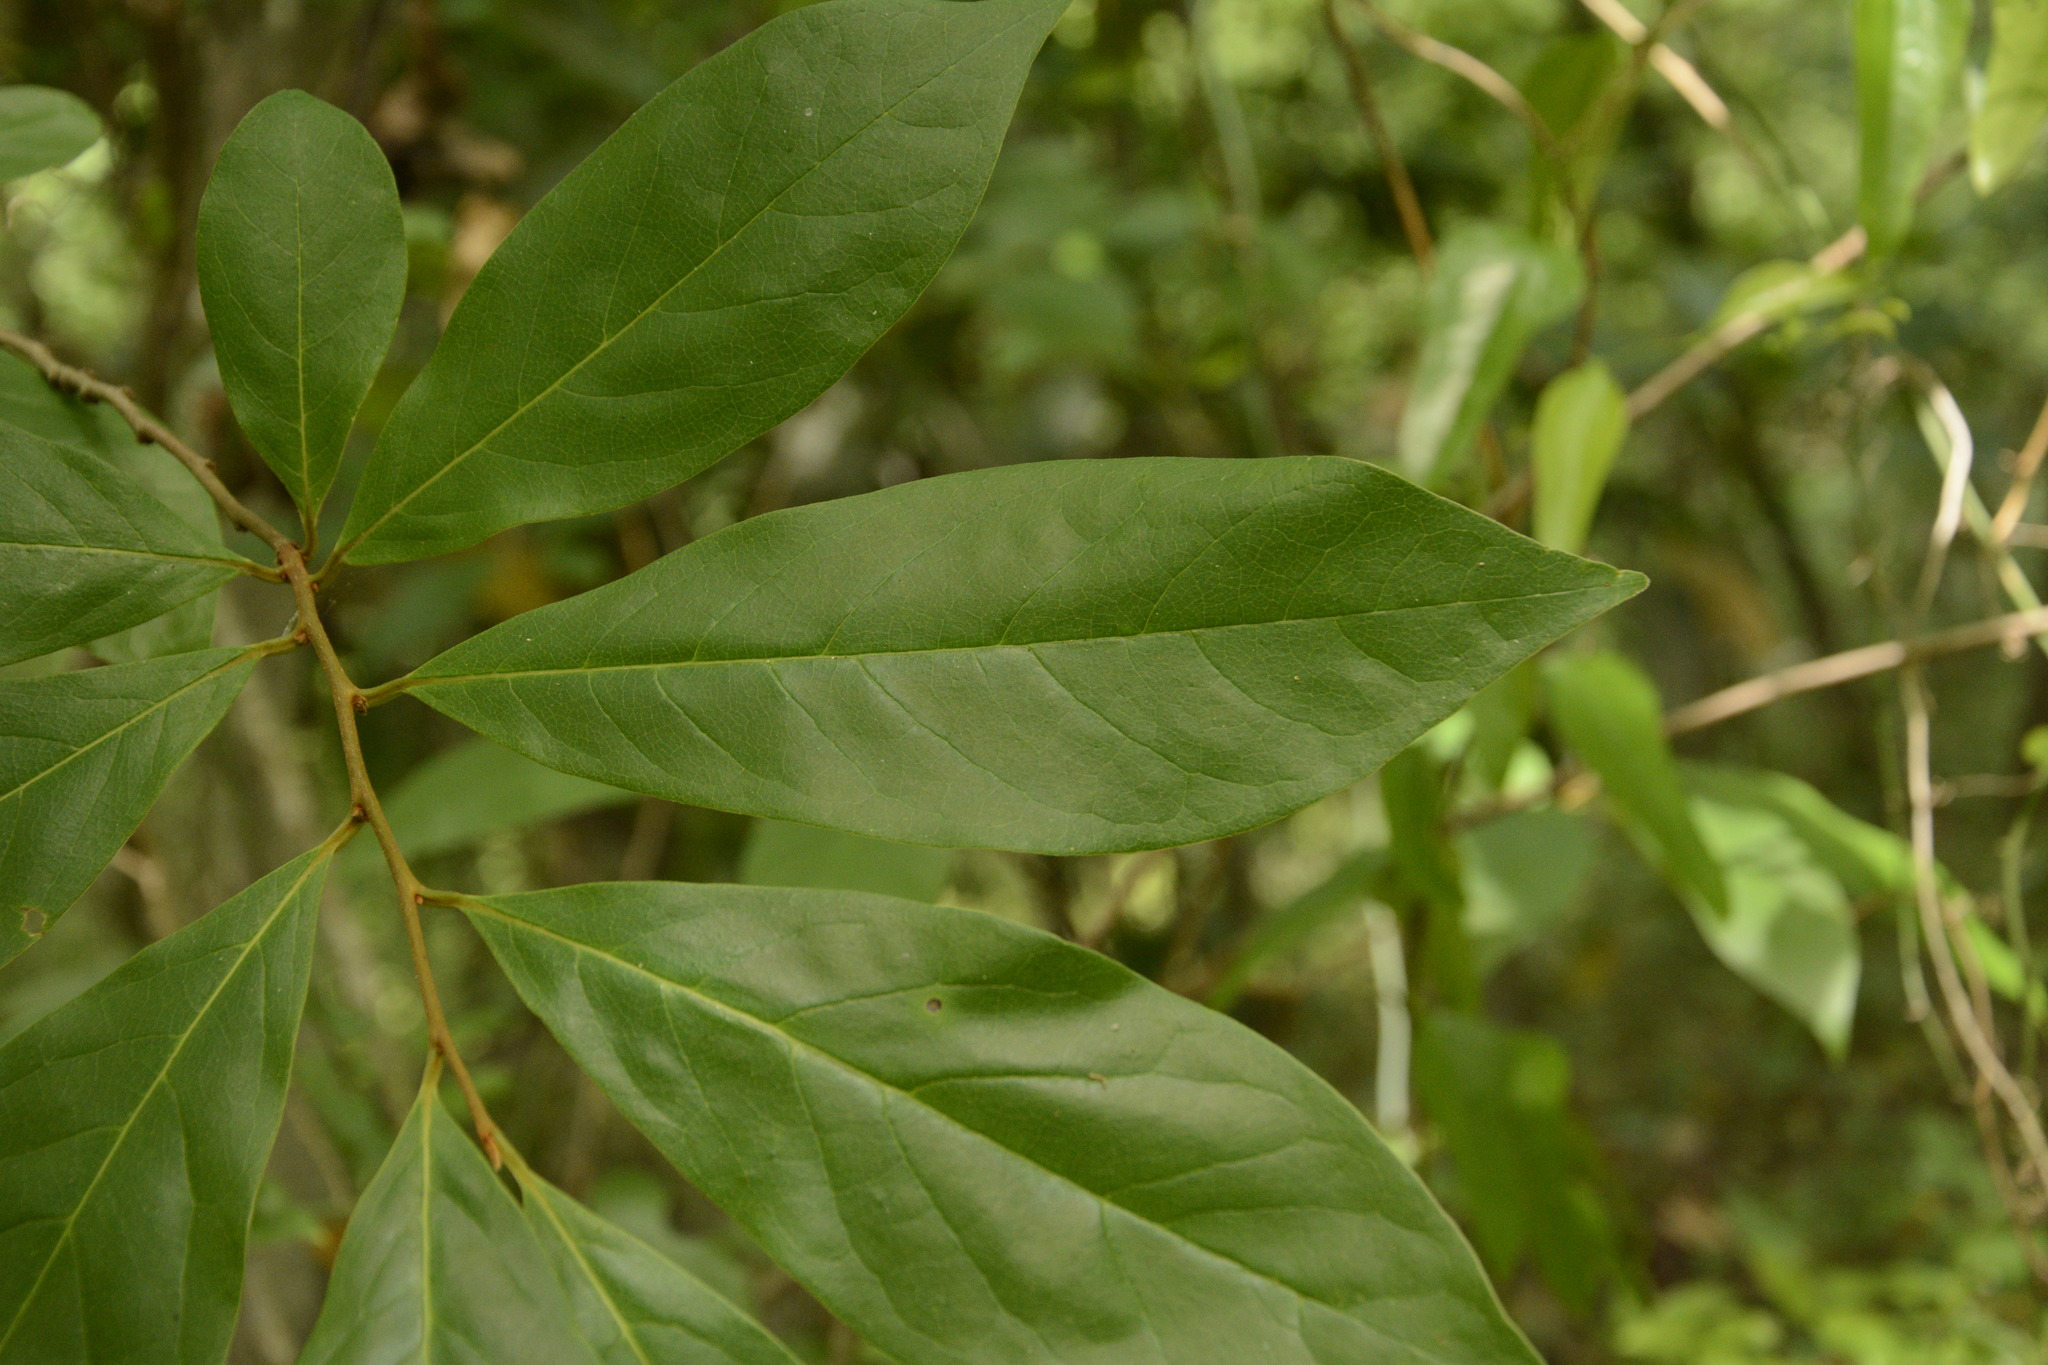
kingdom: Plantae
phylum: Tracheophyta
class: Magnoliopsida
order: Magnoliales
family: Annonaceae
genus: Asimina
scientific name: Asimina parviflora
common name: Dwarf pawpaw
